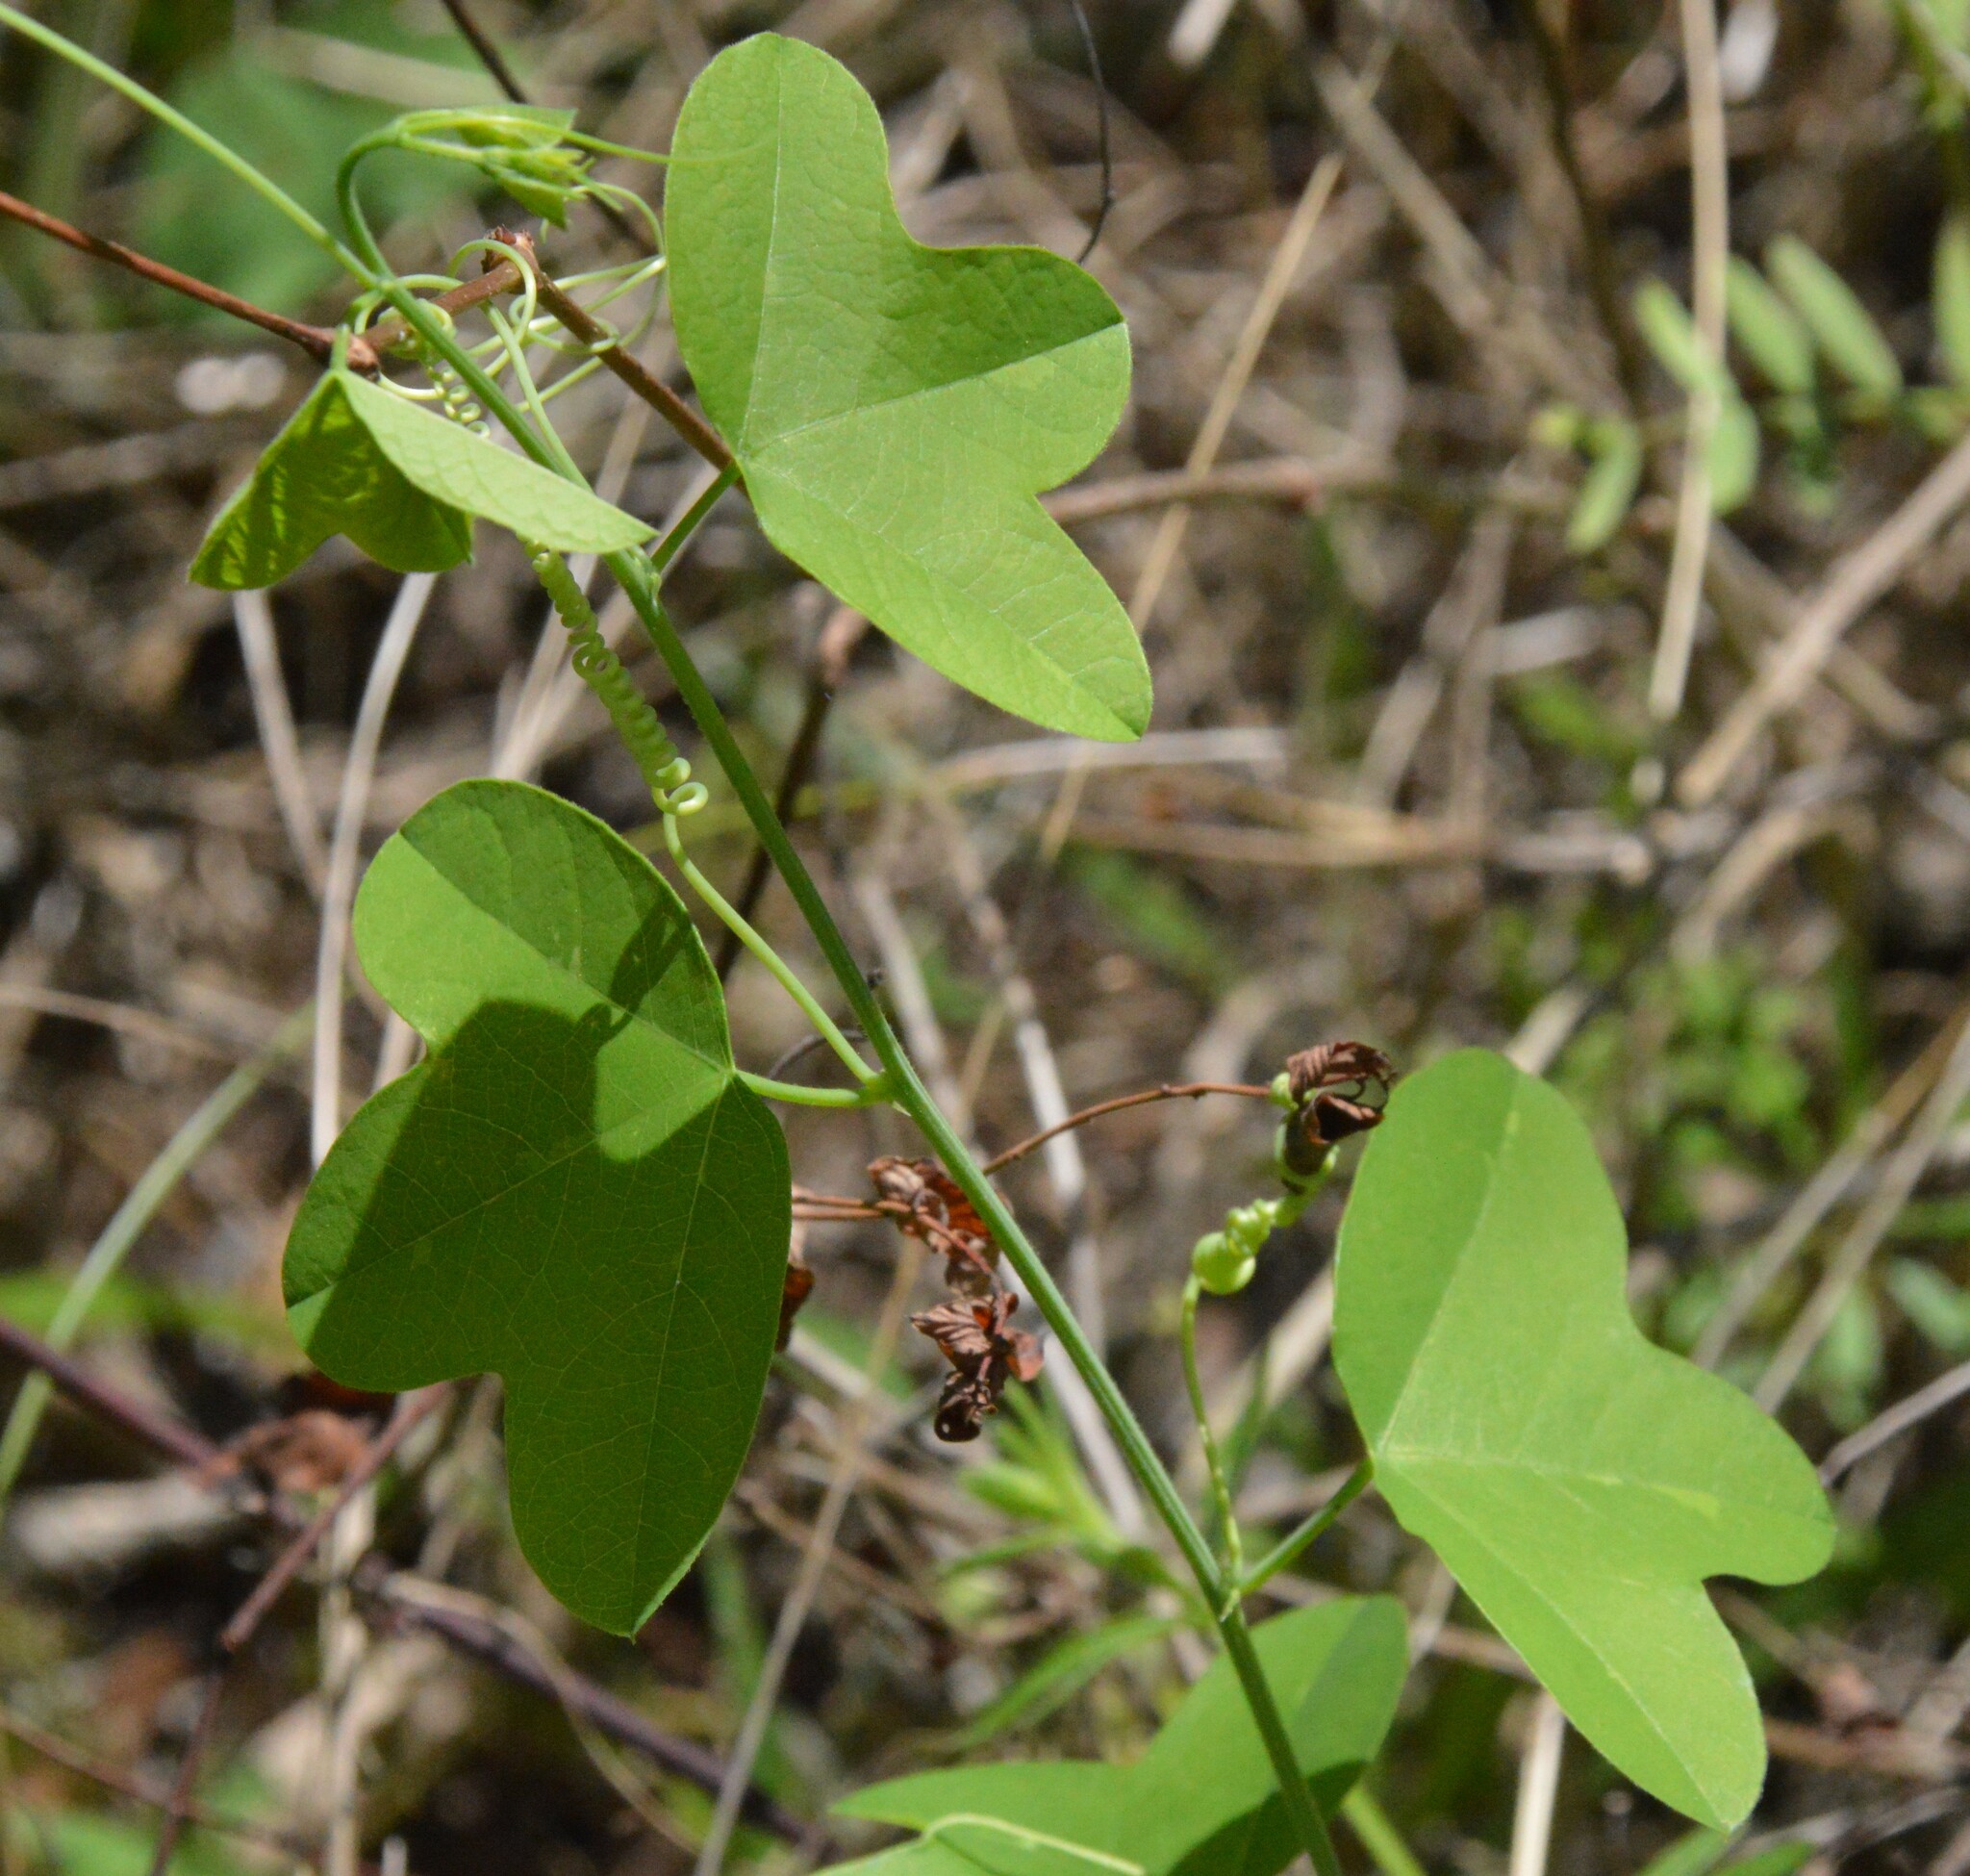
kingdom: Plantae
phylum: Tracheophyta
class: Magnoliopsida
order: Malpighiales
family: Passifloraceae
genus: Passiflora
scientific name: Passiflora lutea
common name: Yellow passionflower
